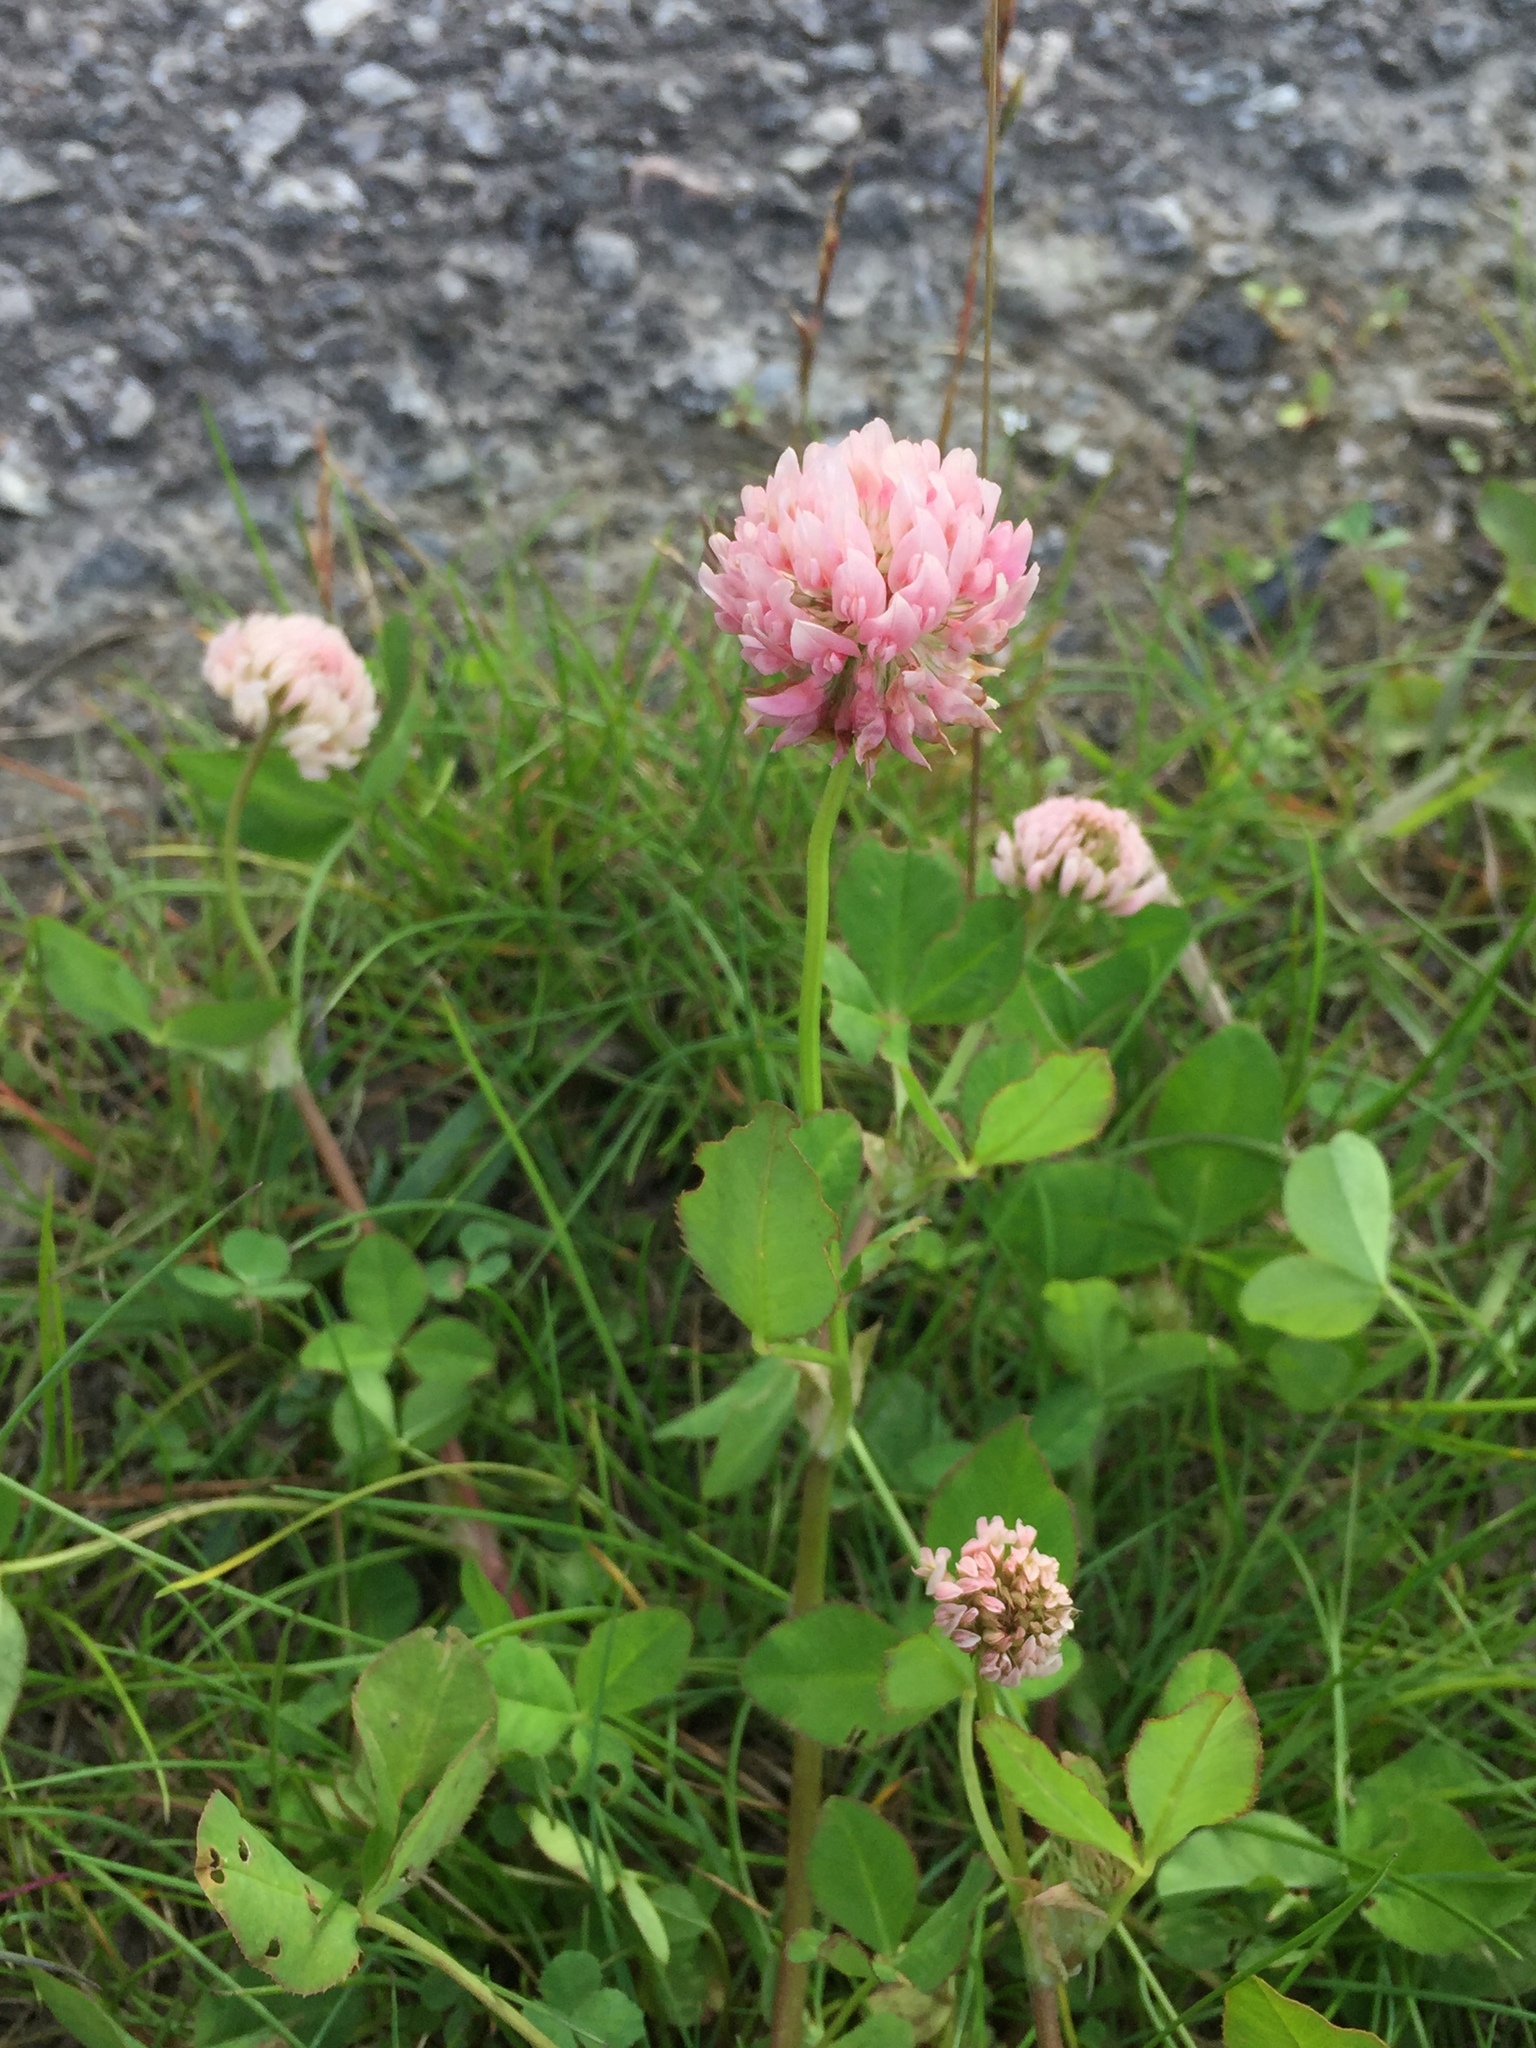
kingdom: Plantae
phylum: Tracheophyta
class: Magnoliopsida
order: Fabales
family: Fabaceae
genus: Trifolium
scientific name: Trifolium hybridum
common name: Alsike clover
